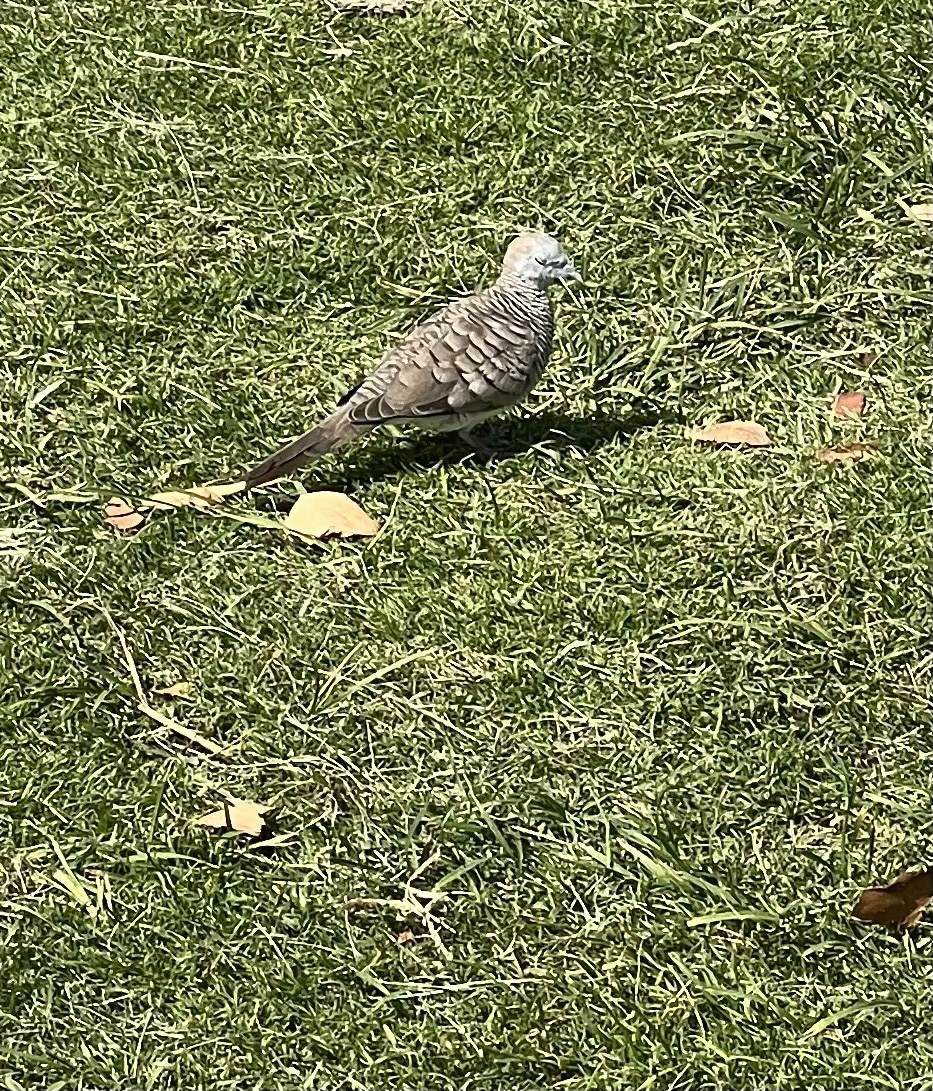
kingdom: Animalia
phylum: Chordata
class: Aves
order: Columbiformes
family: Columbidae
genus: Geopelia
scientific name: Geopelia striata
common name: Zebra dove
